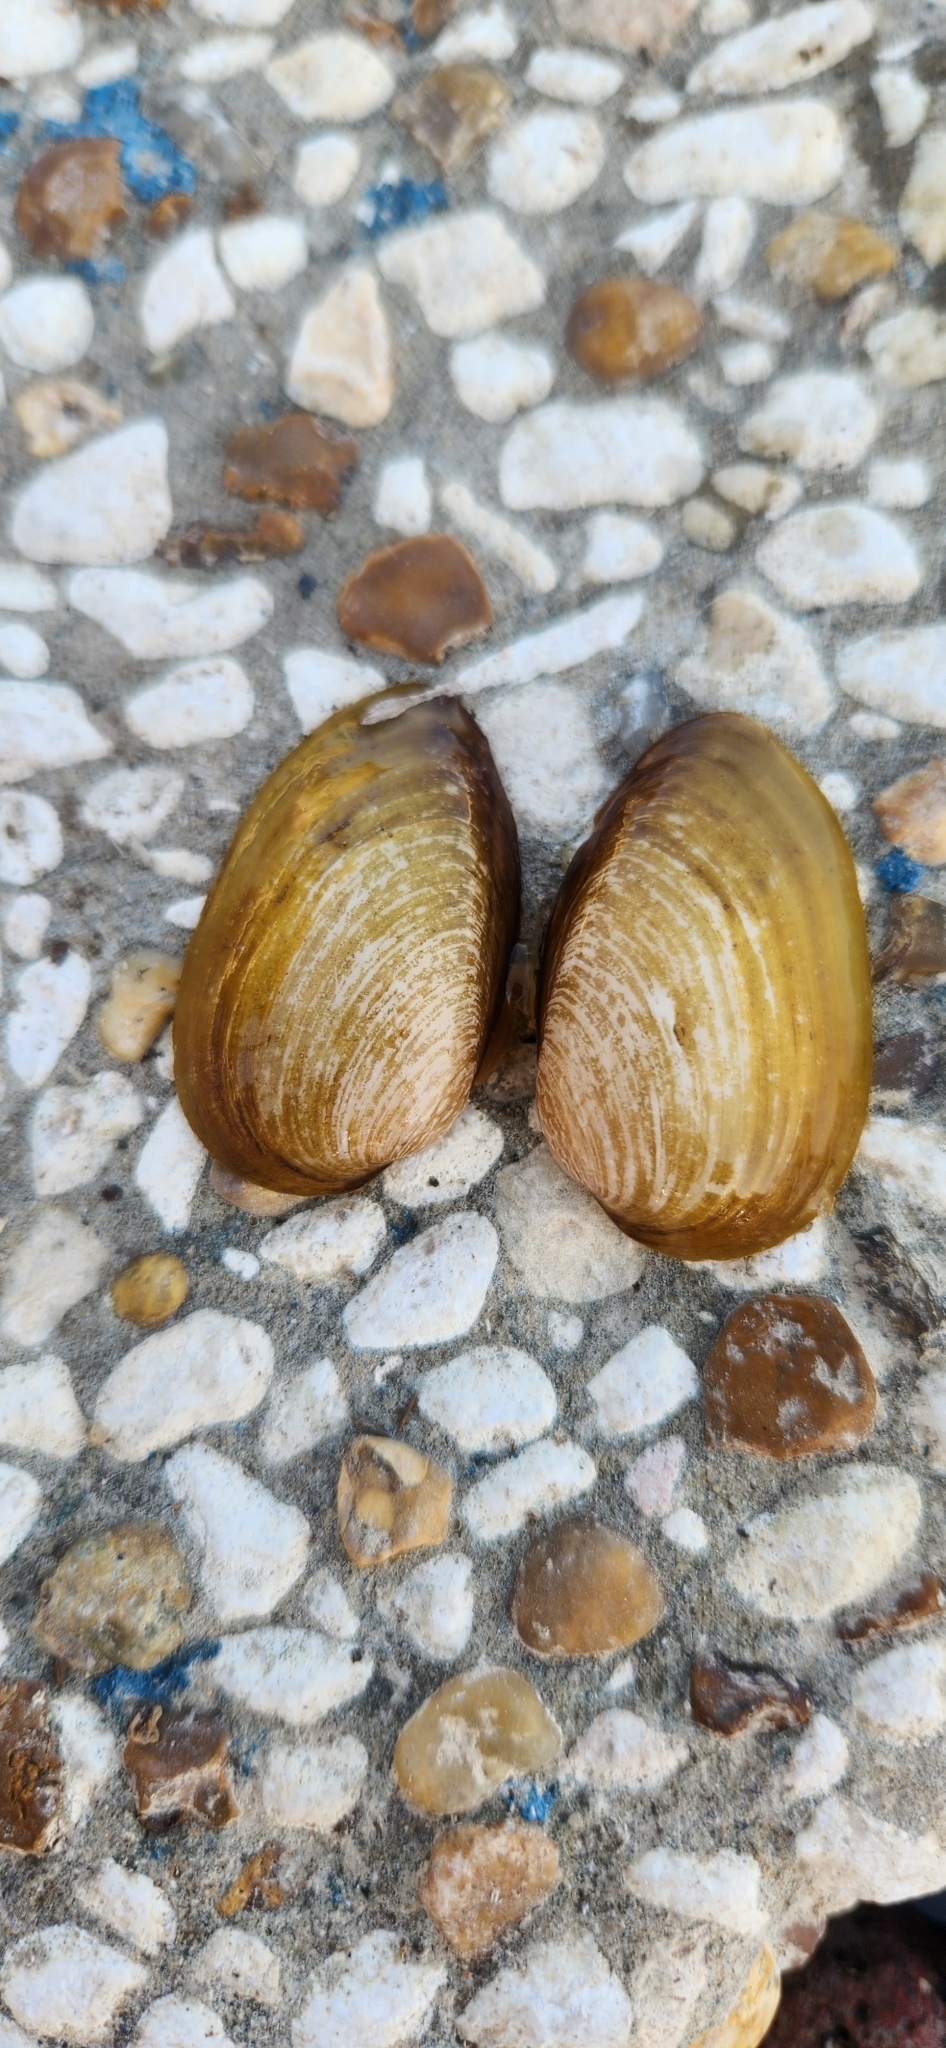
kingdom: Animalia
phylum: Mollusca
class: Bivalvia
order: Unionida
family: Unionidae
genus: Unio
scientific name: Unio terminalis
